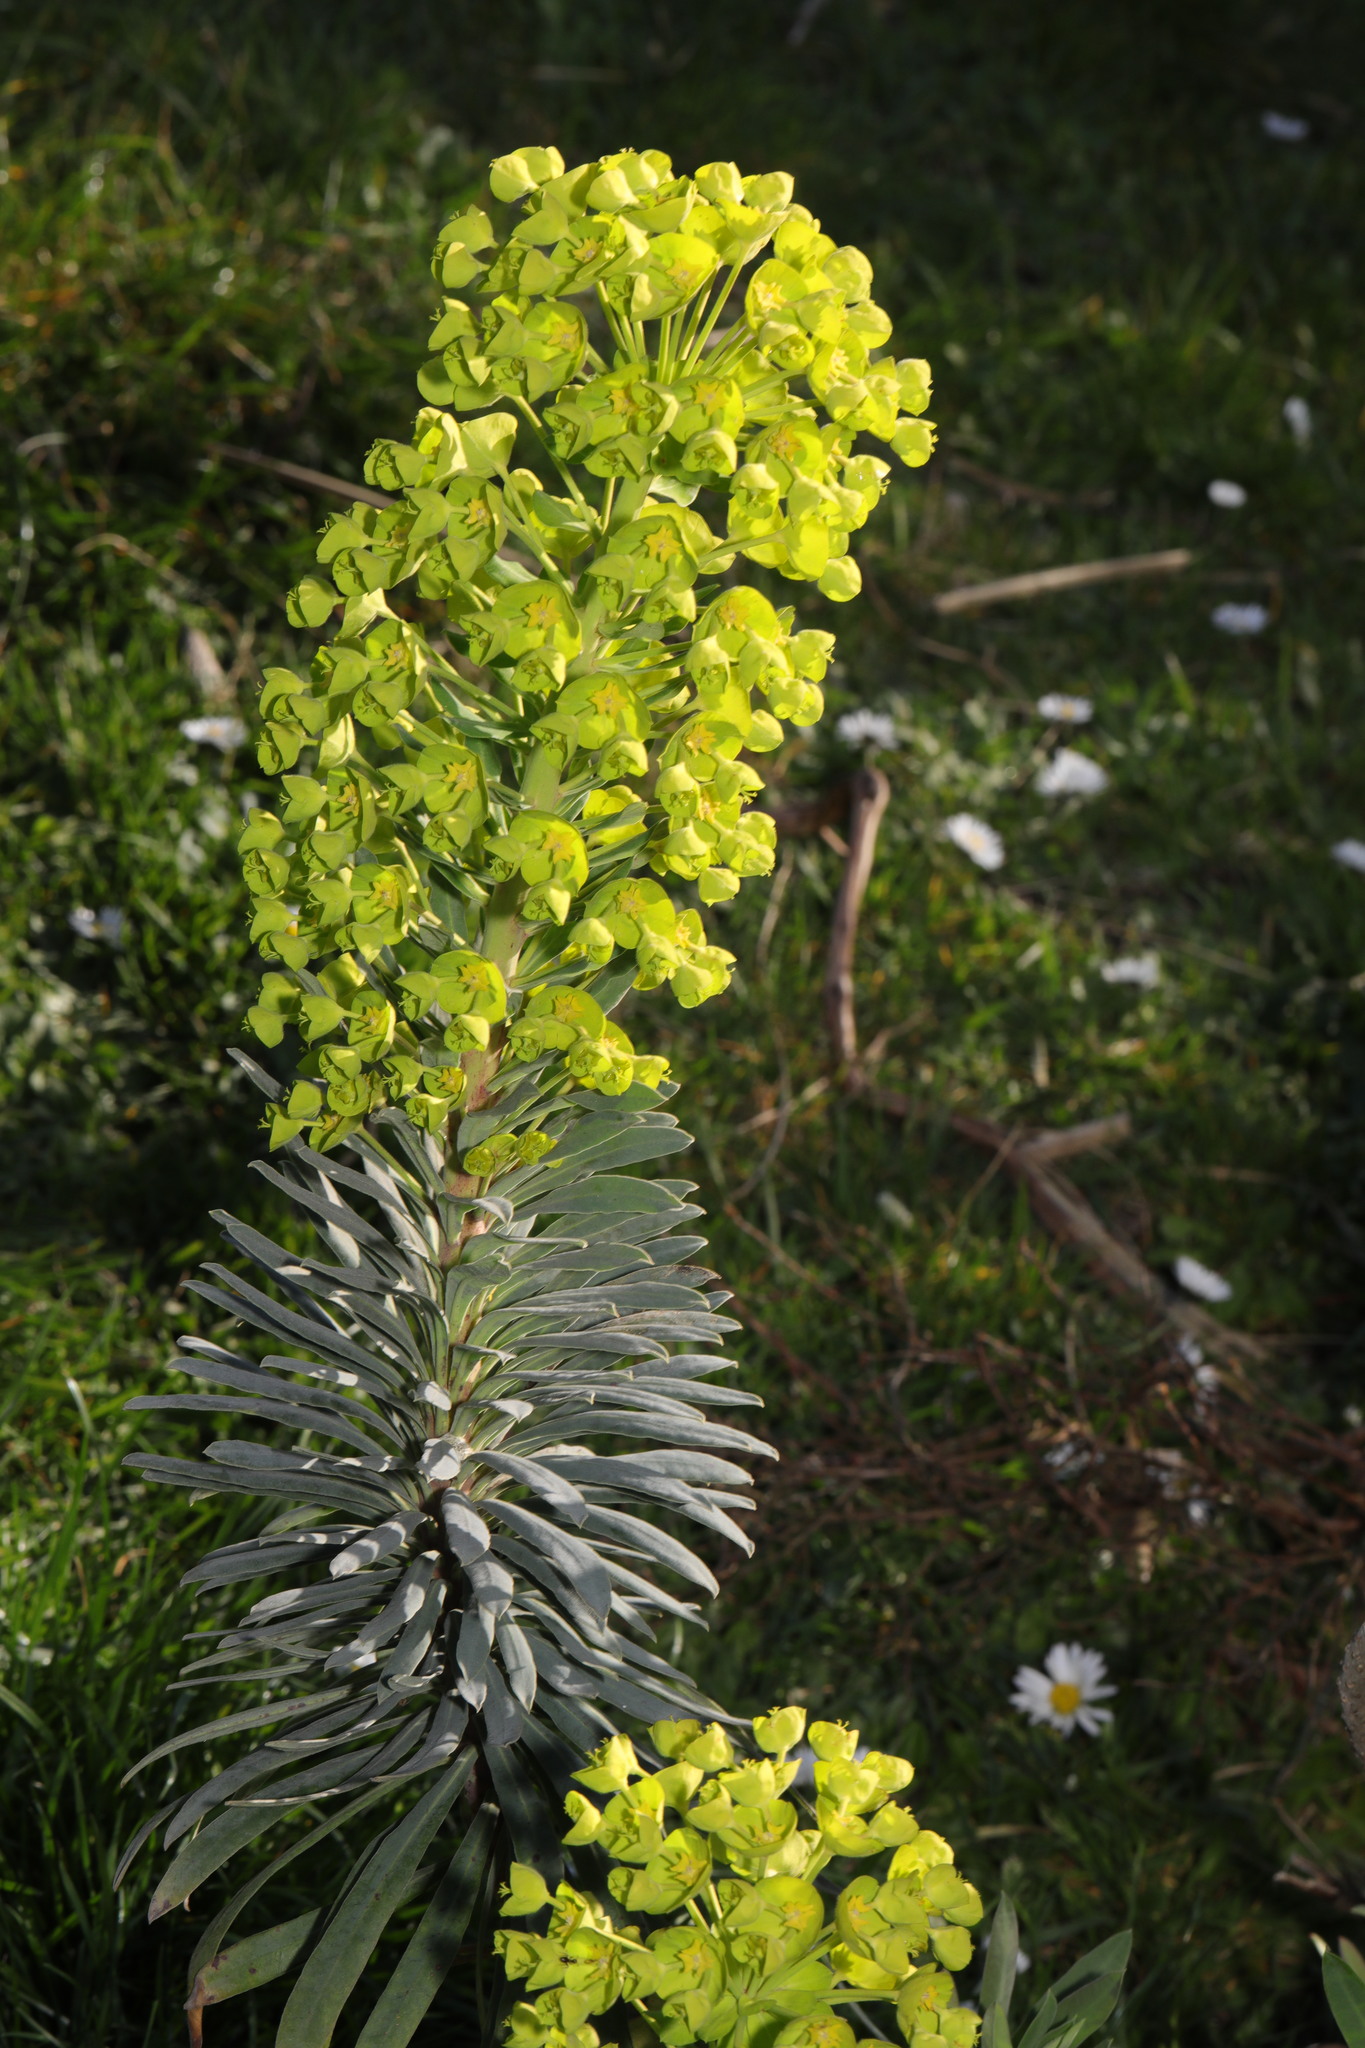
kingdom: Plantae
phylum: Tracheophyta
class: Magnoliopsida
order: Malpighiales
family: Euphorbiaceae
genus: Euphorbia
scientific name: Euphorbia characias
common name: Mediterranean spurge
